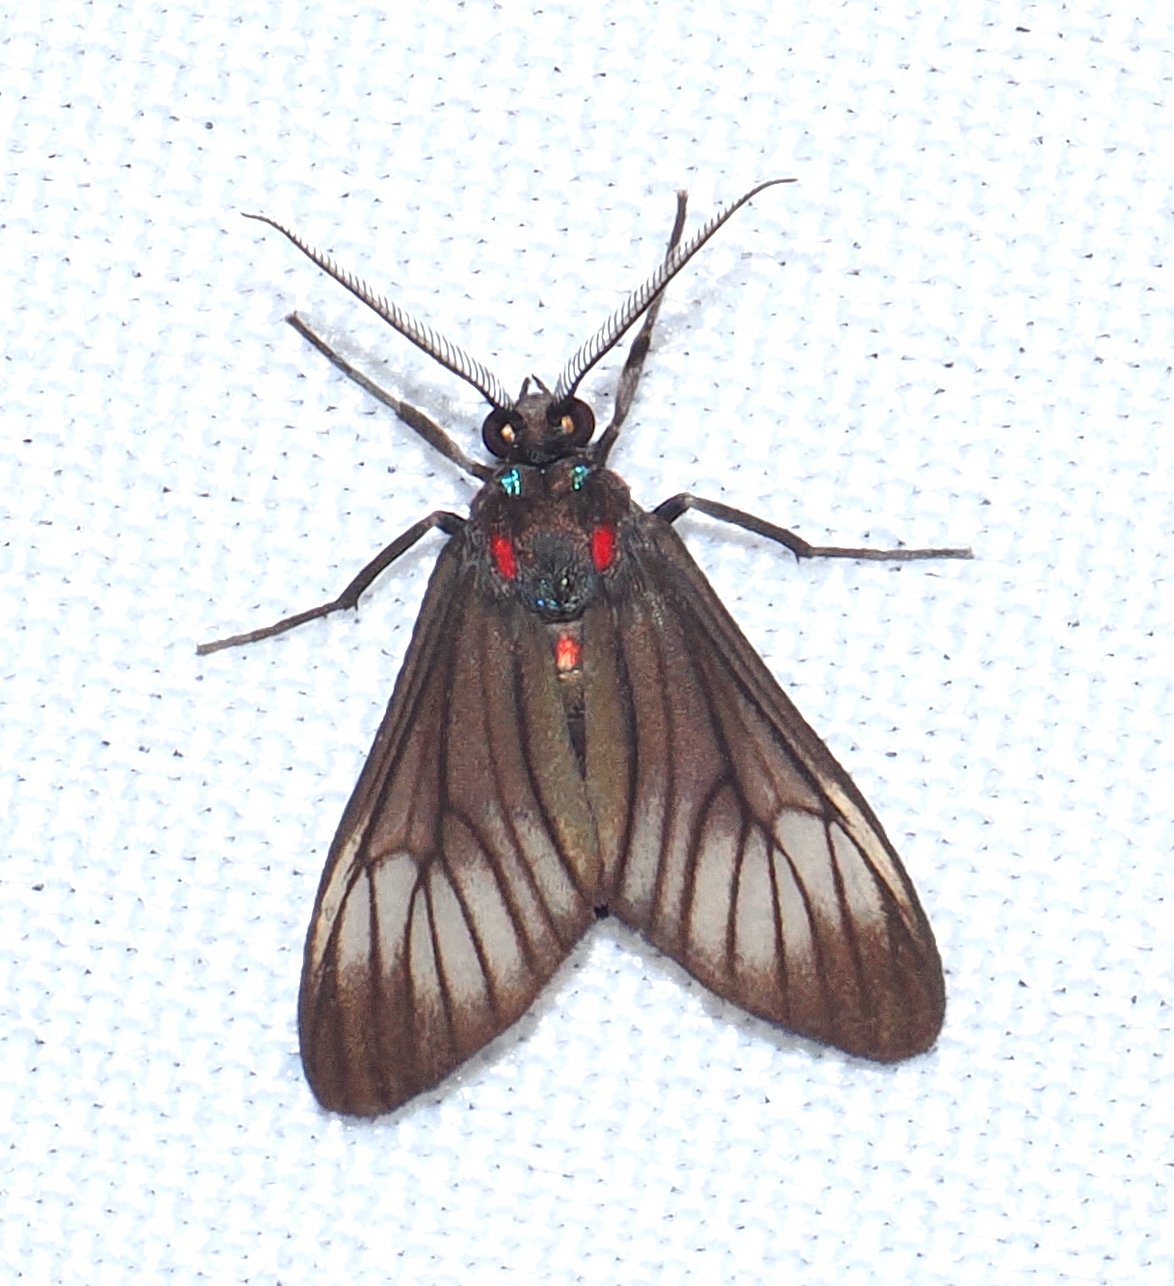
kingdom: Animalia
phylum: Arthropoda
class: Insecta
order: Lepidoptera
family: Erebidae
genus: Hyperphara
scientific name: Hyperphara clusia
